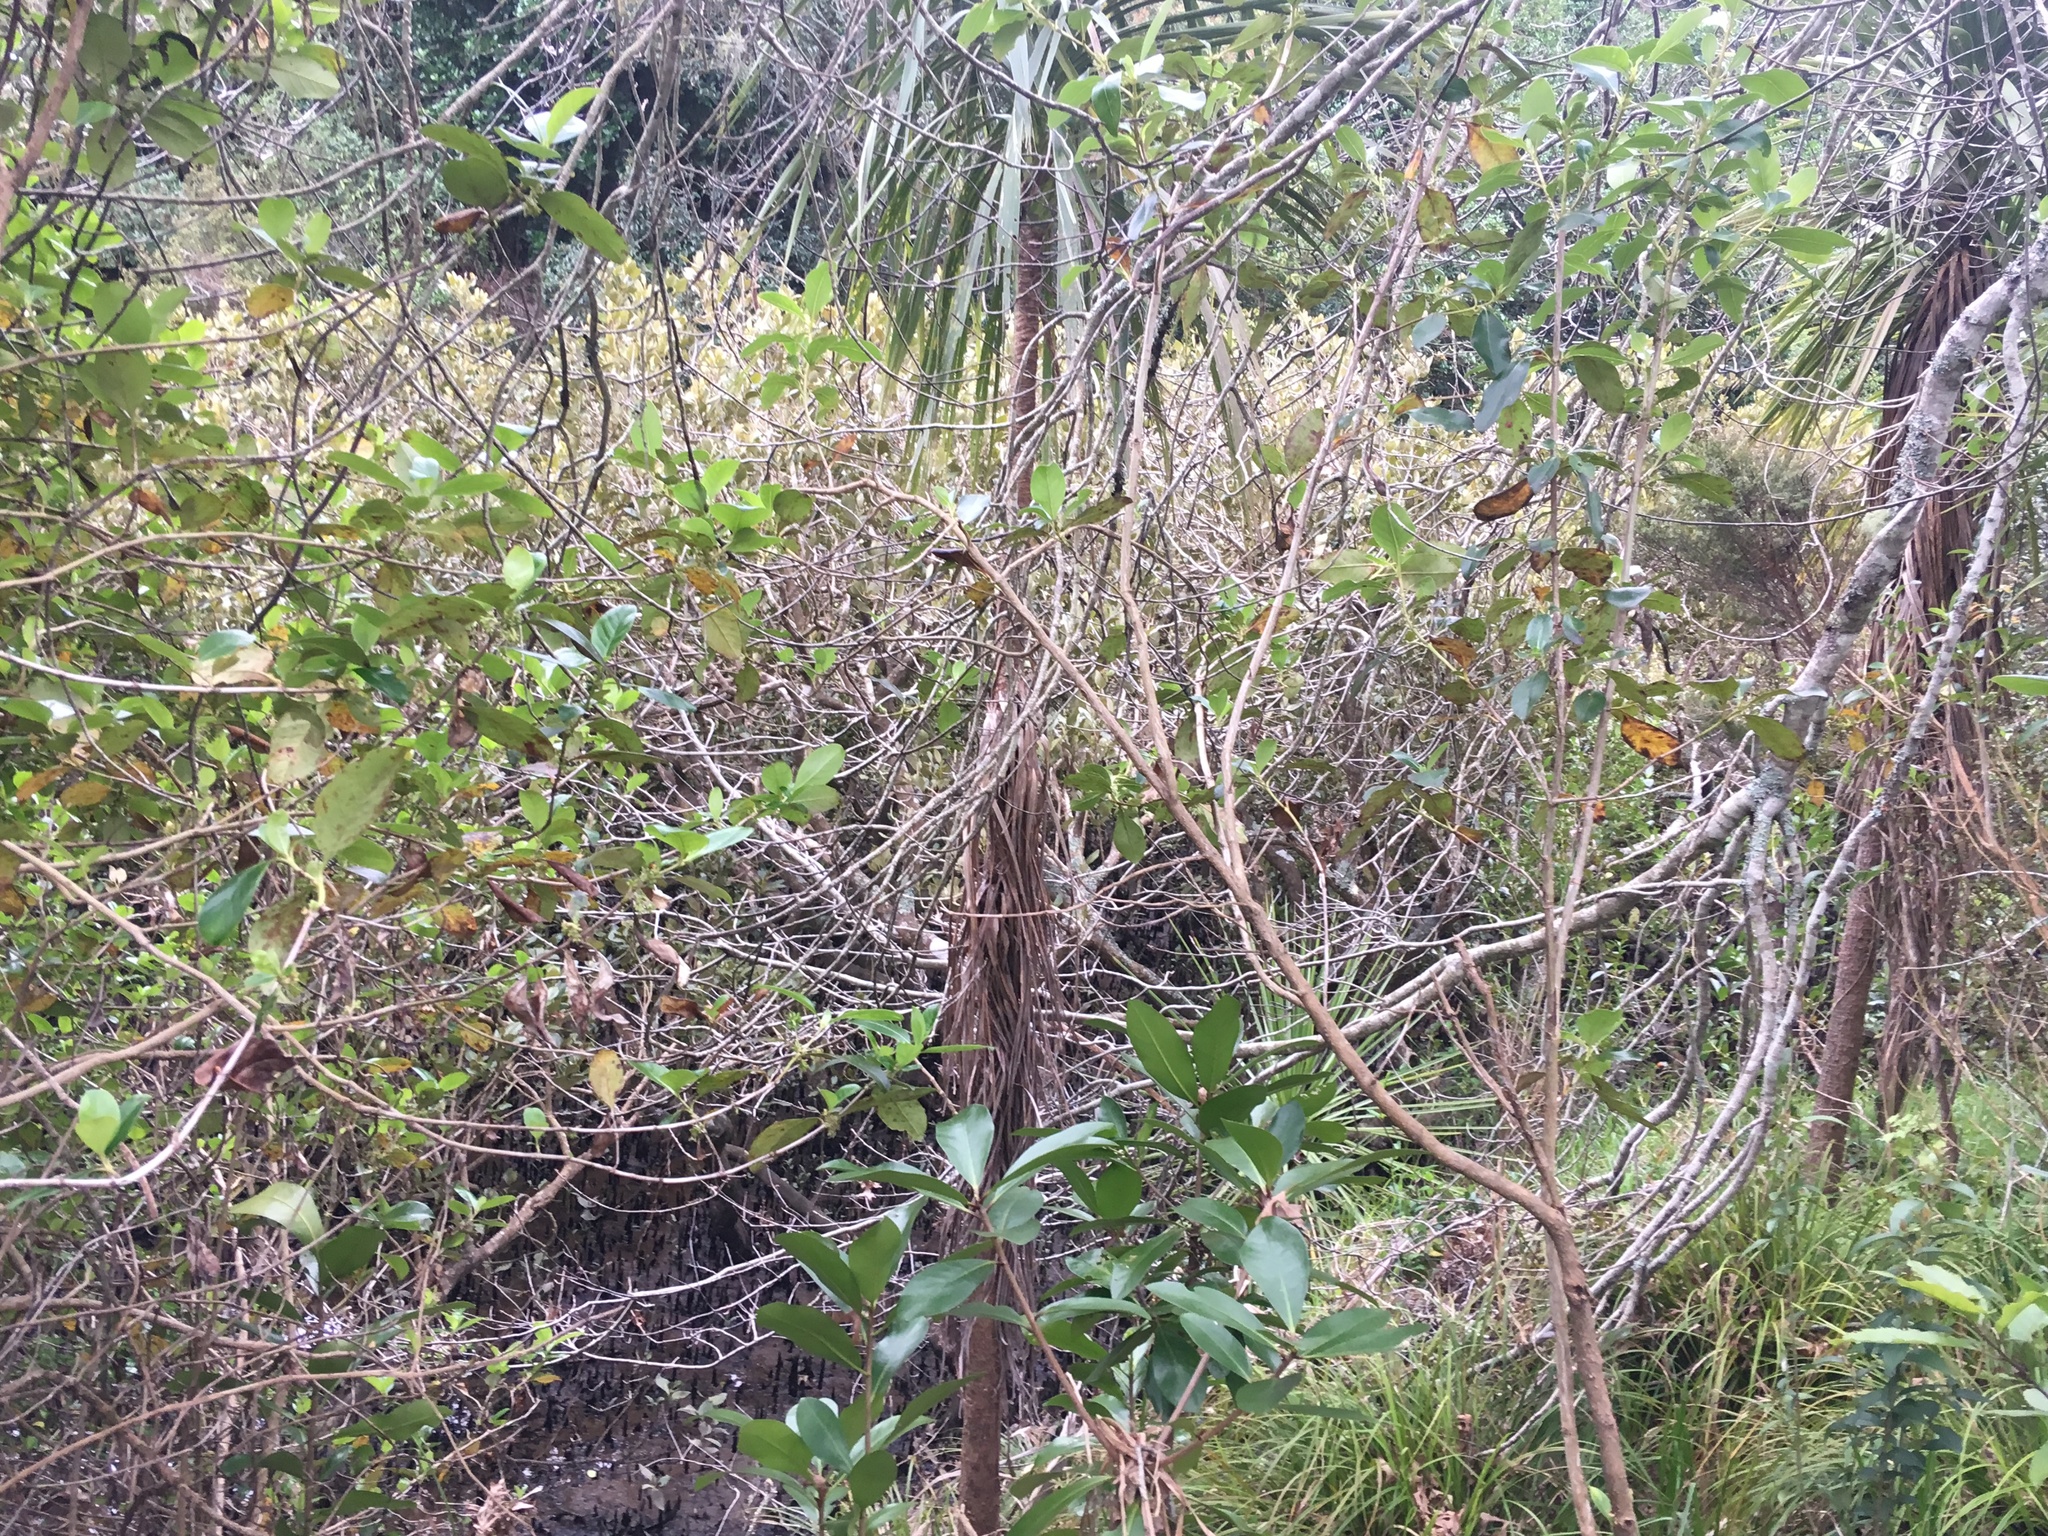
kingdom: Plantae
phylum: Tracheophyta
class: Magnoliopsida
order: Cucurbitales
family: Corynocarpaceae
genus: Corynocarpus
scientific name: Corynocarpus laevigatus
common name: New zealand laurel
